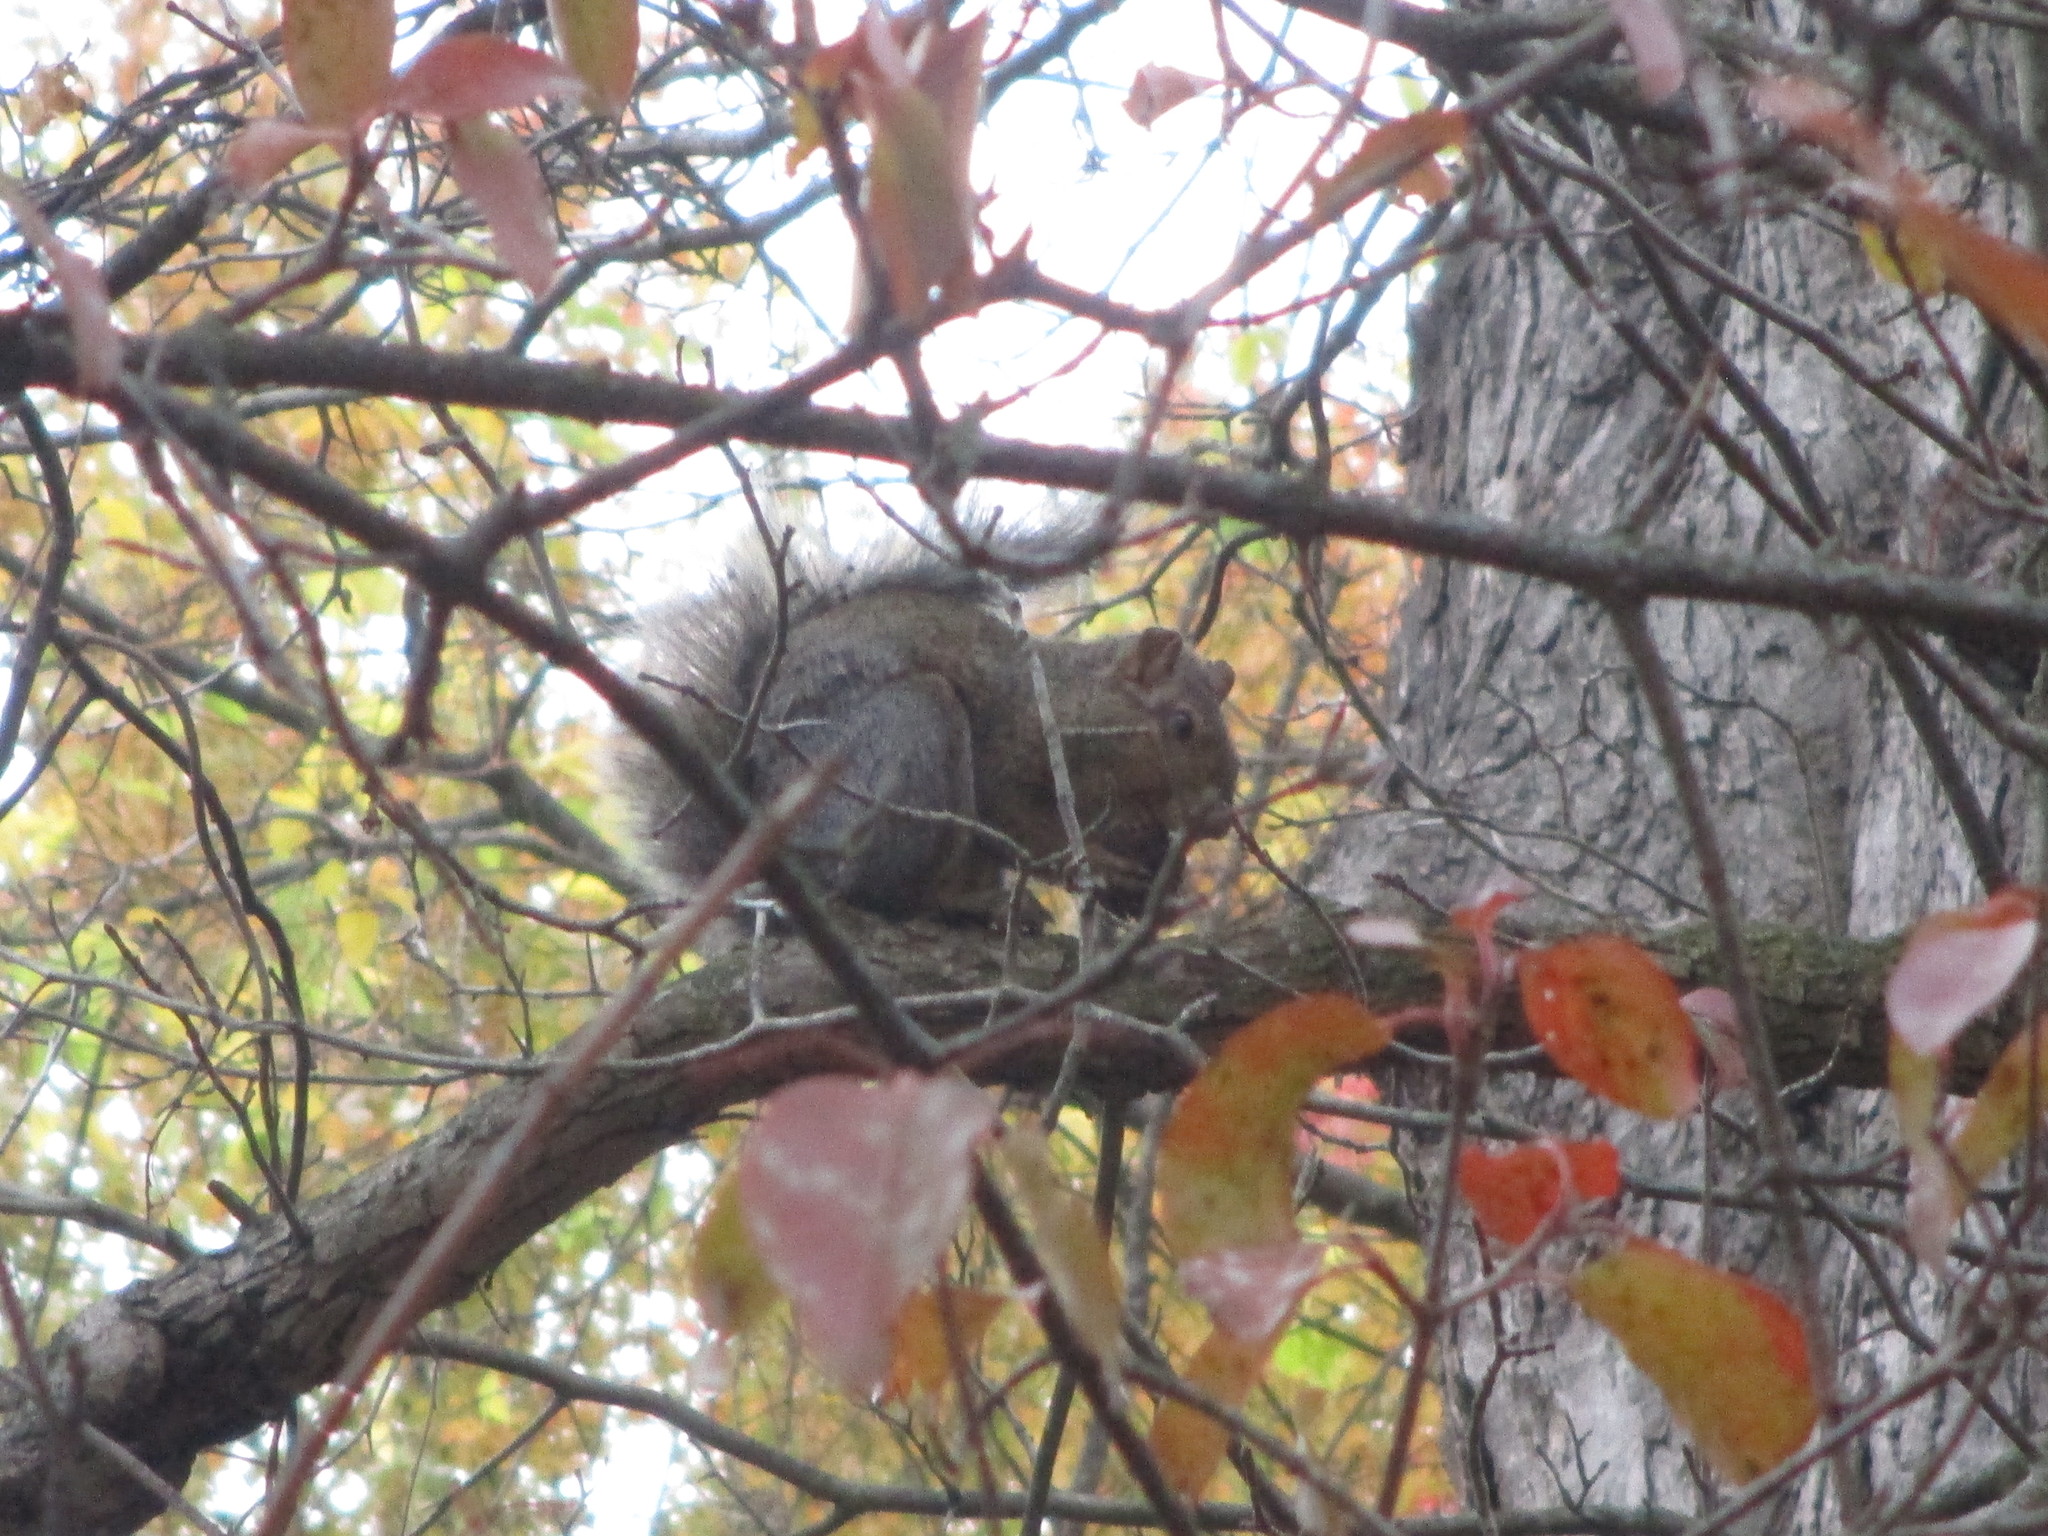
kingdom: Animalia
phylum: Chordata
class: Mammalia
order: Rodentia
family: Sciuridae
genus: Sciurus
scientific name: Sciurus carolinensis
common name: Eastern gray squirrel
